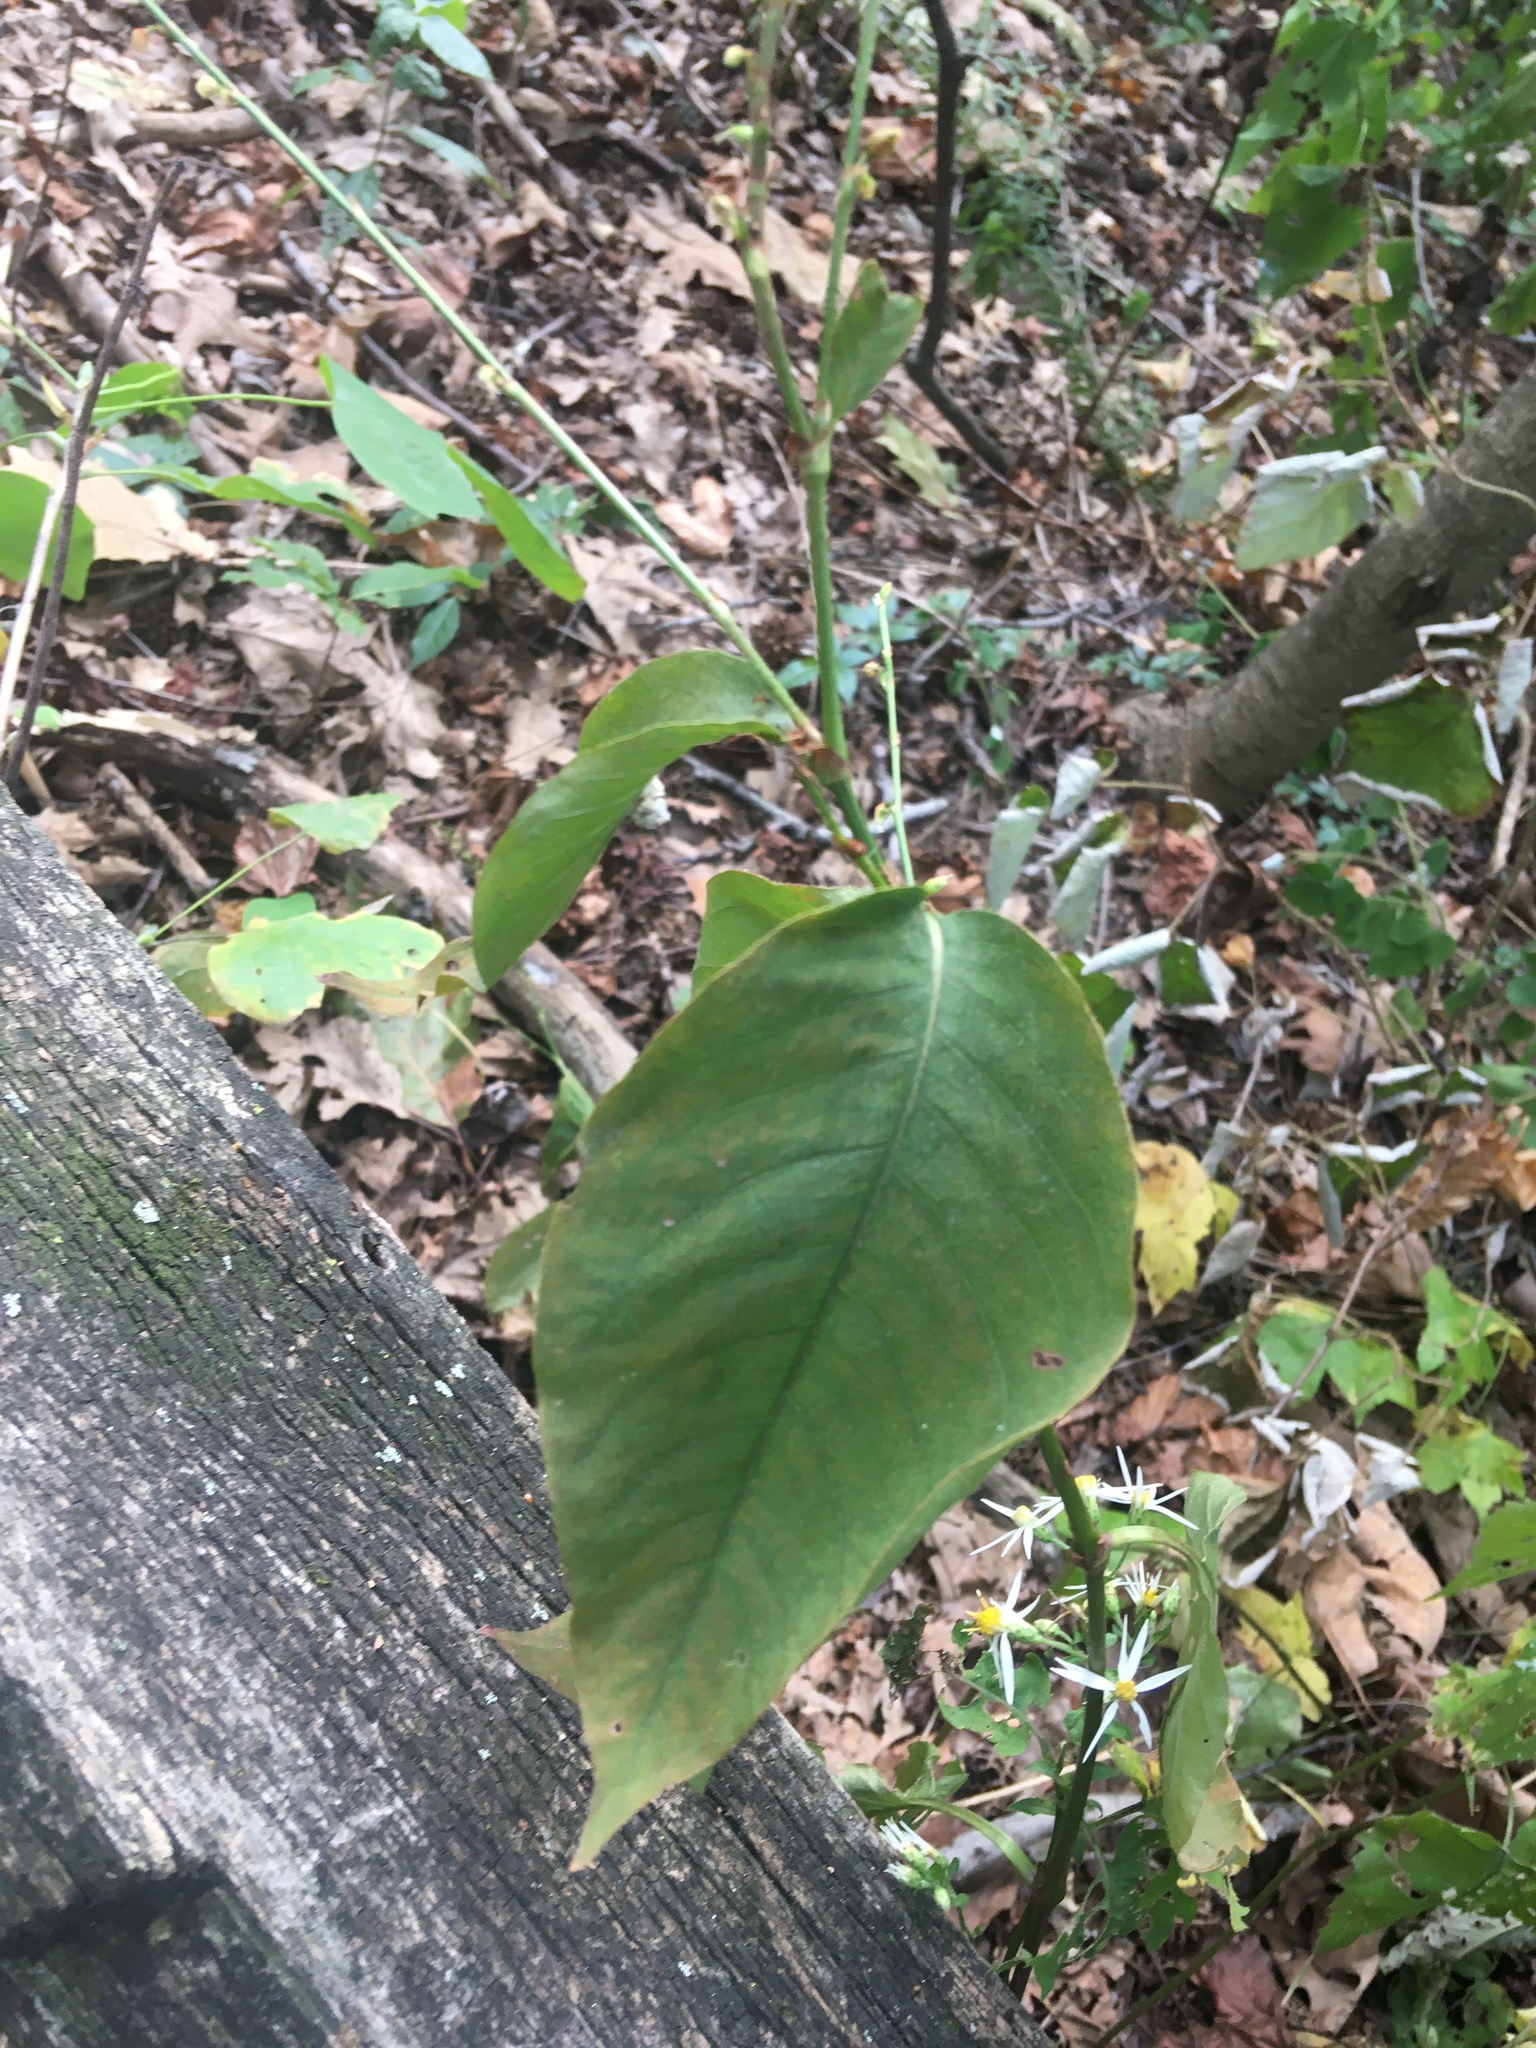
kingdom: Plantae
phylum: Tracheophyta
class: Magnoliopsida
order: Caryophyllales
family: Polygonaceae
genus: Persicaria
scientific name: Persicaria virginiana
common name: Jumpseed
